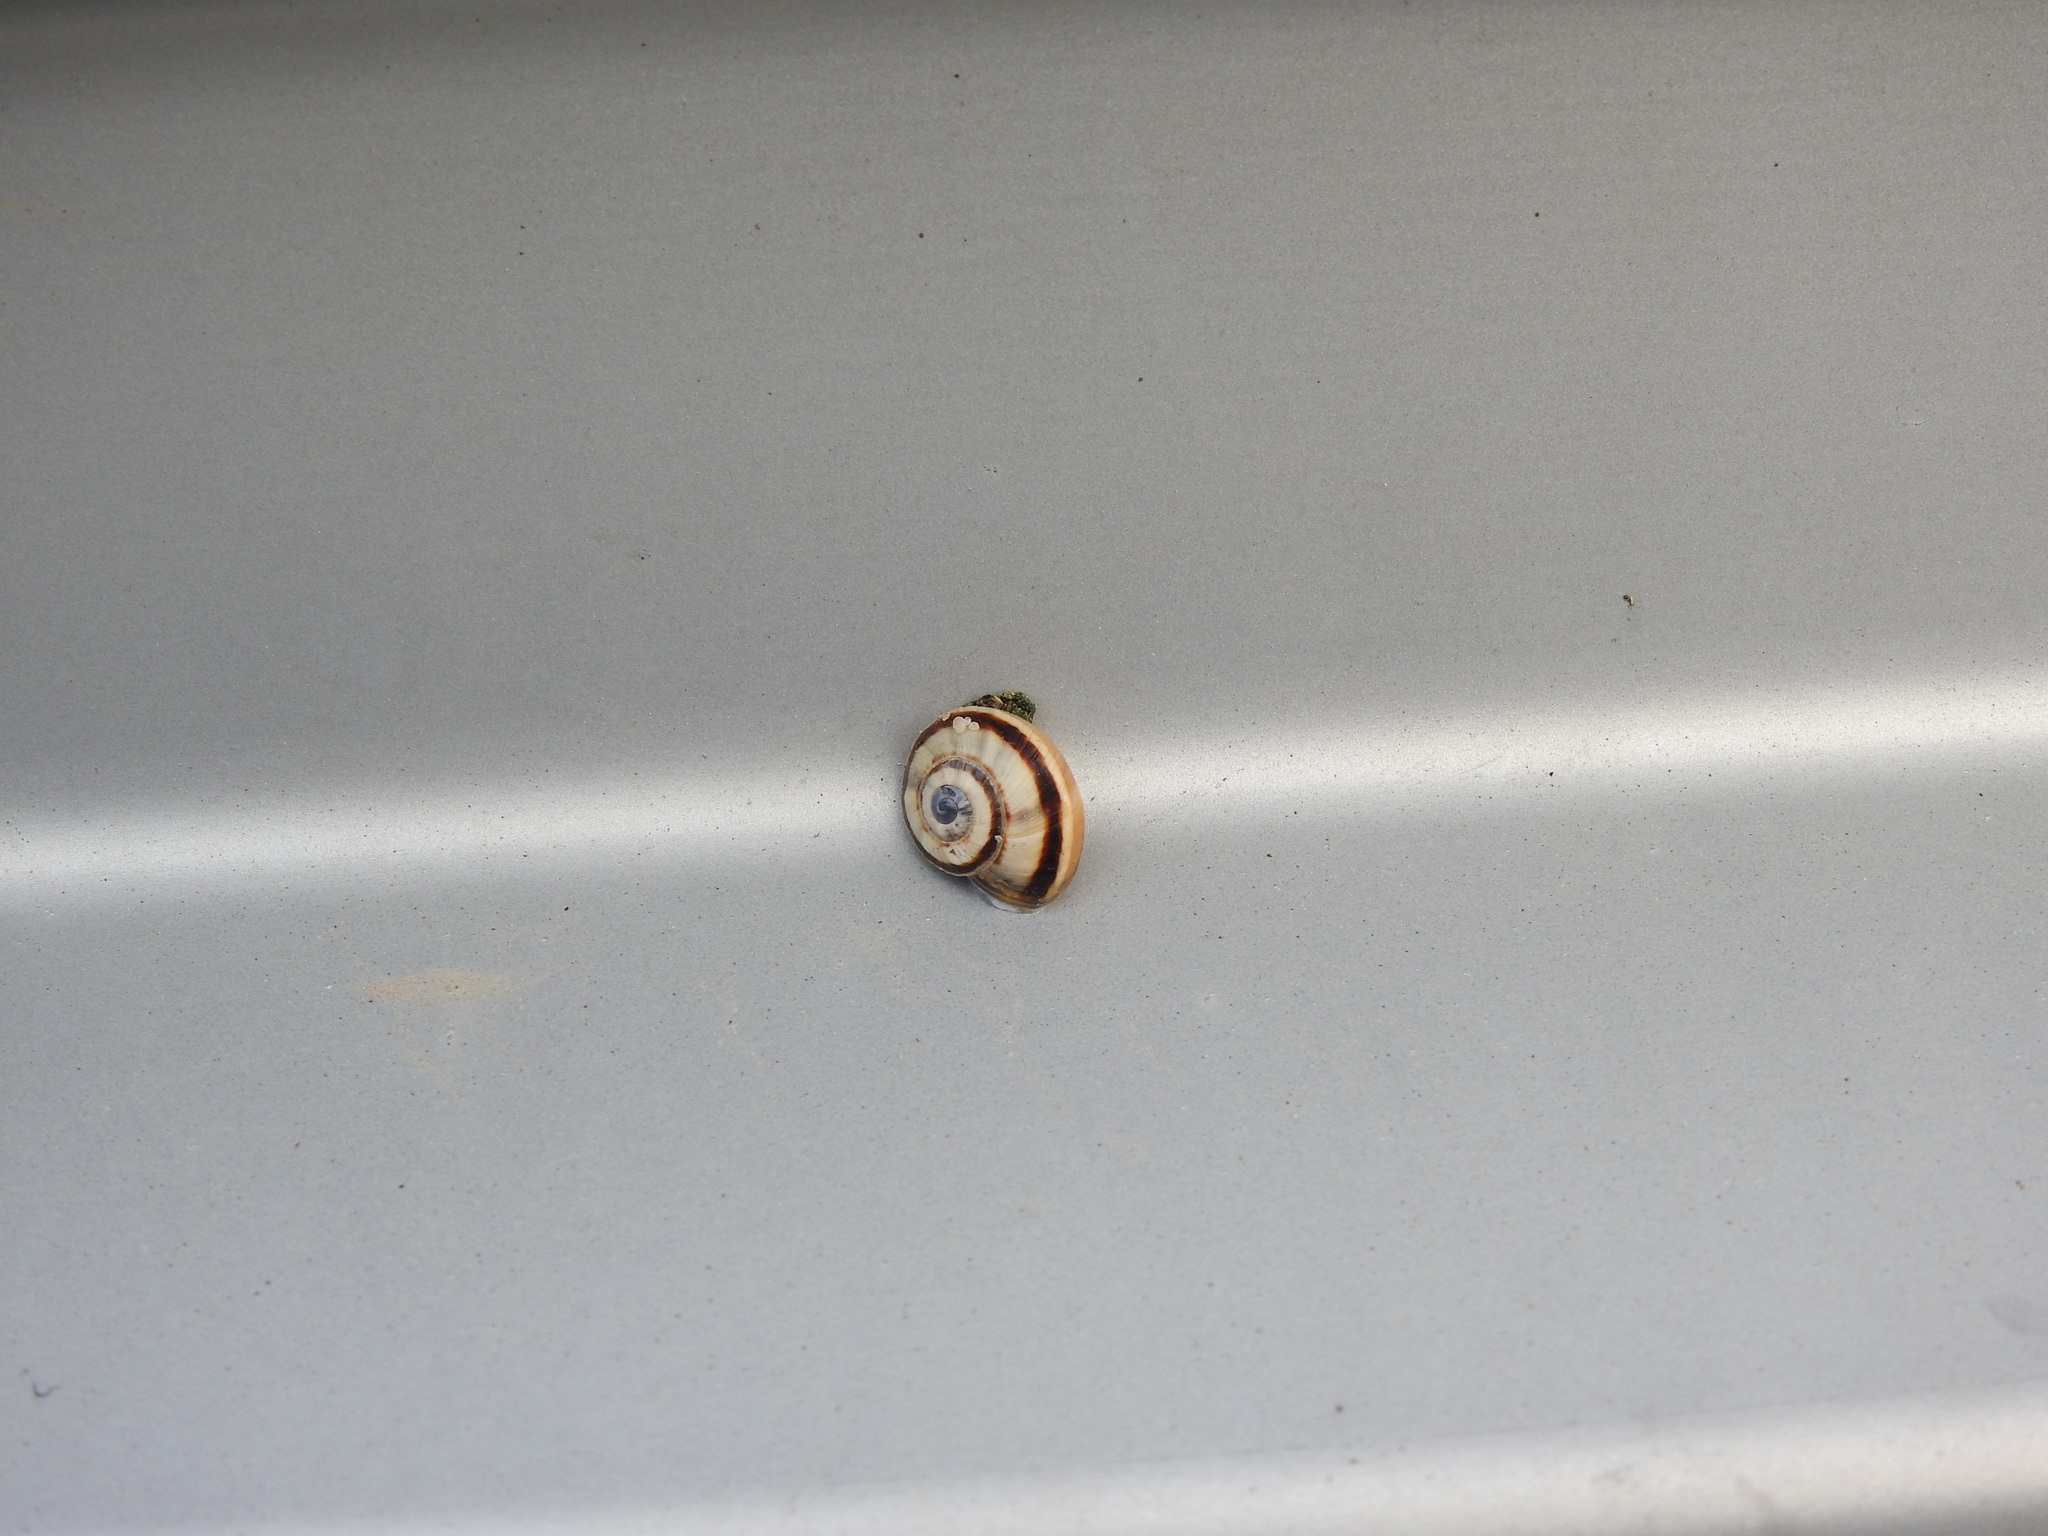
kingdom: Animalia
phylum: Mollusca
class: Gastropoda
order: Stylommatophora
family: Helicidae
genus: Theba
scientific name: Theba pisana
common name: White snail
